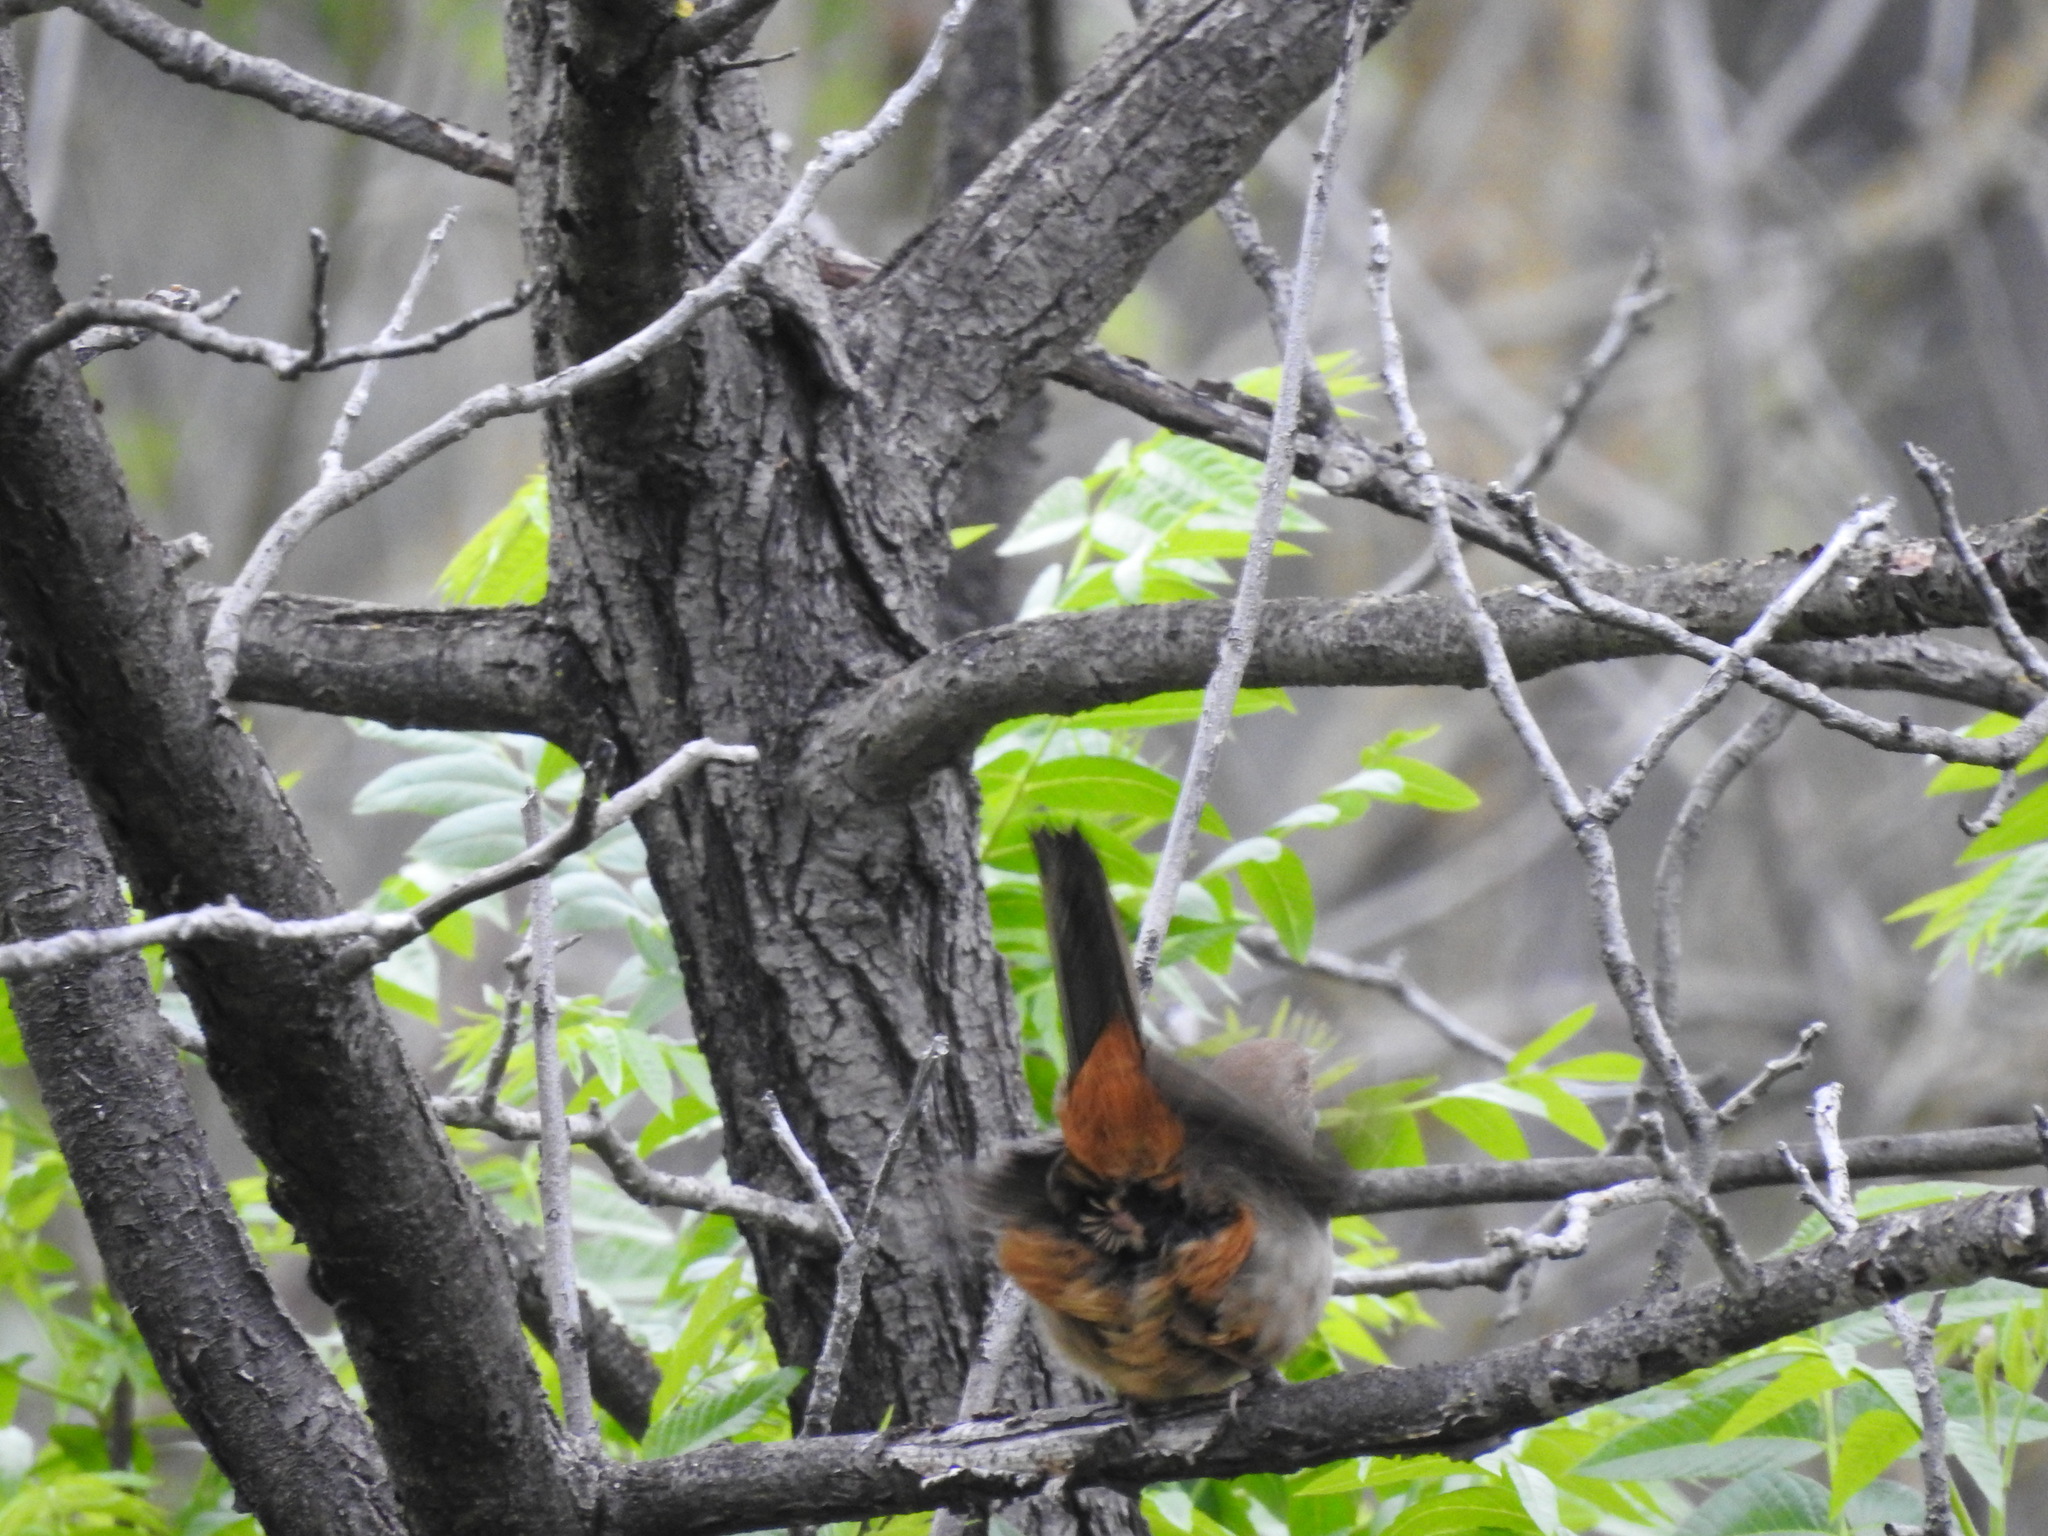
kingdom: Animalia
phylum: Chordata
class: Aves
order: Passeriformes
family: Passerellidae
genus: Melozone
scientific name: Melozone crissalis
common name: California towhee
